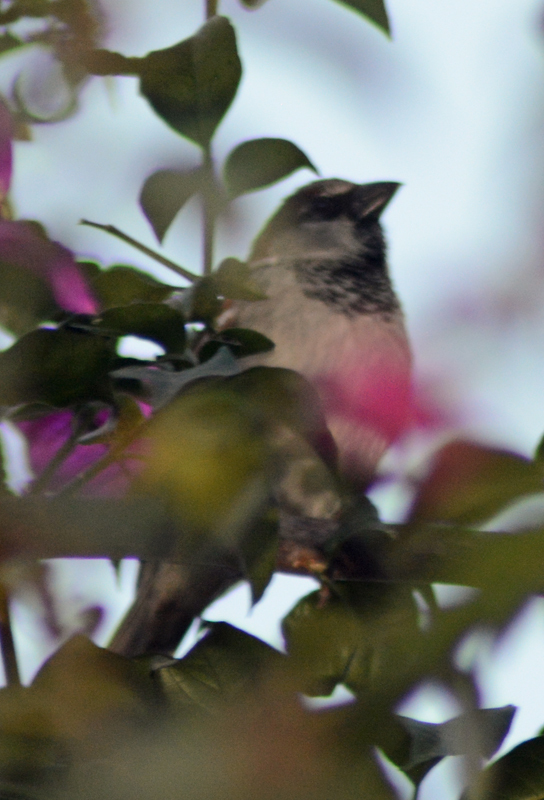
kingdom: Animalia
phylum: Chordata
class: Aves
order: Passeriformes
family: Passeridae
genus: Passer
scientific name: Passer domesticus
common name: House sparrow
